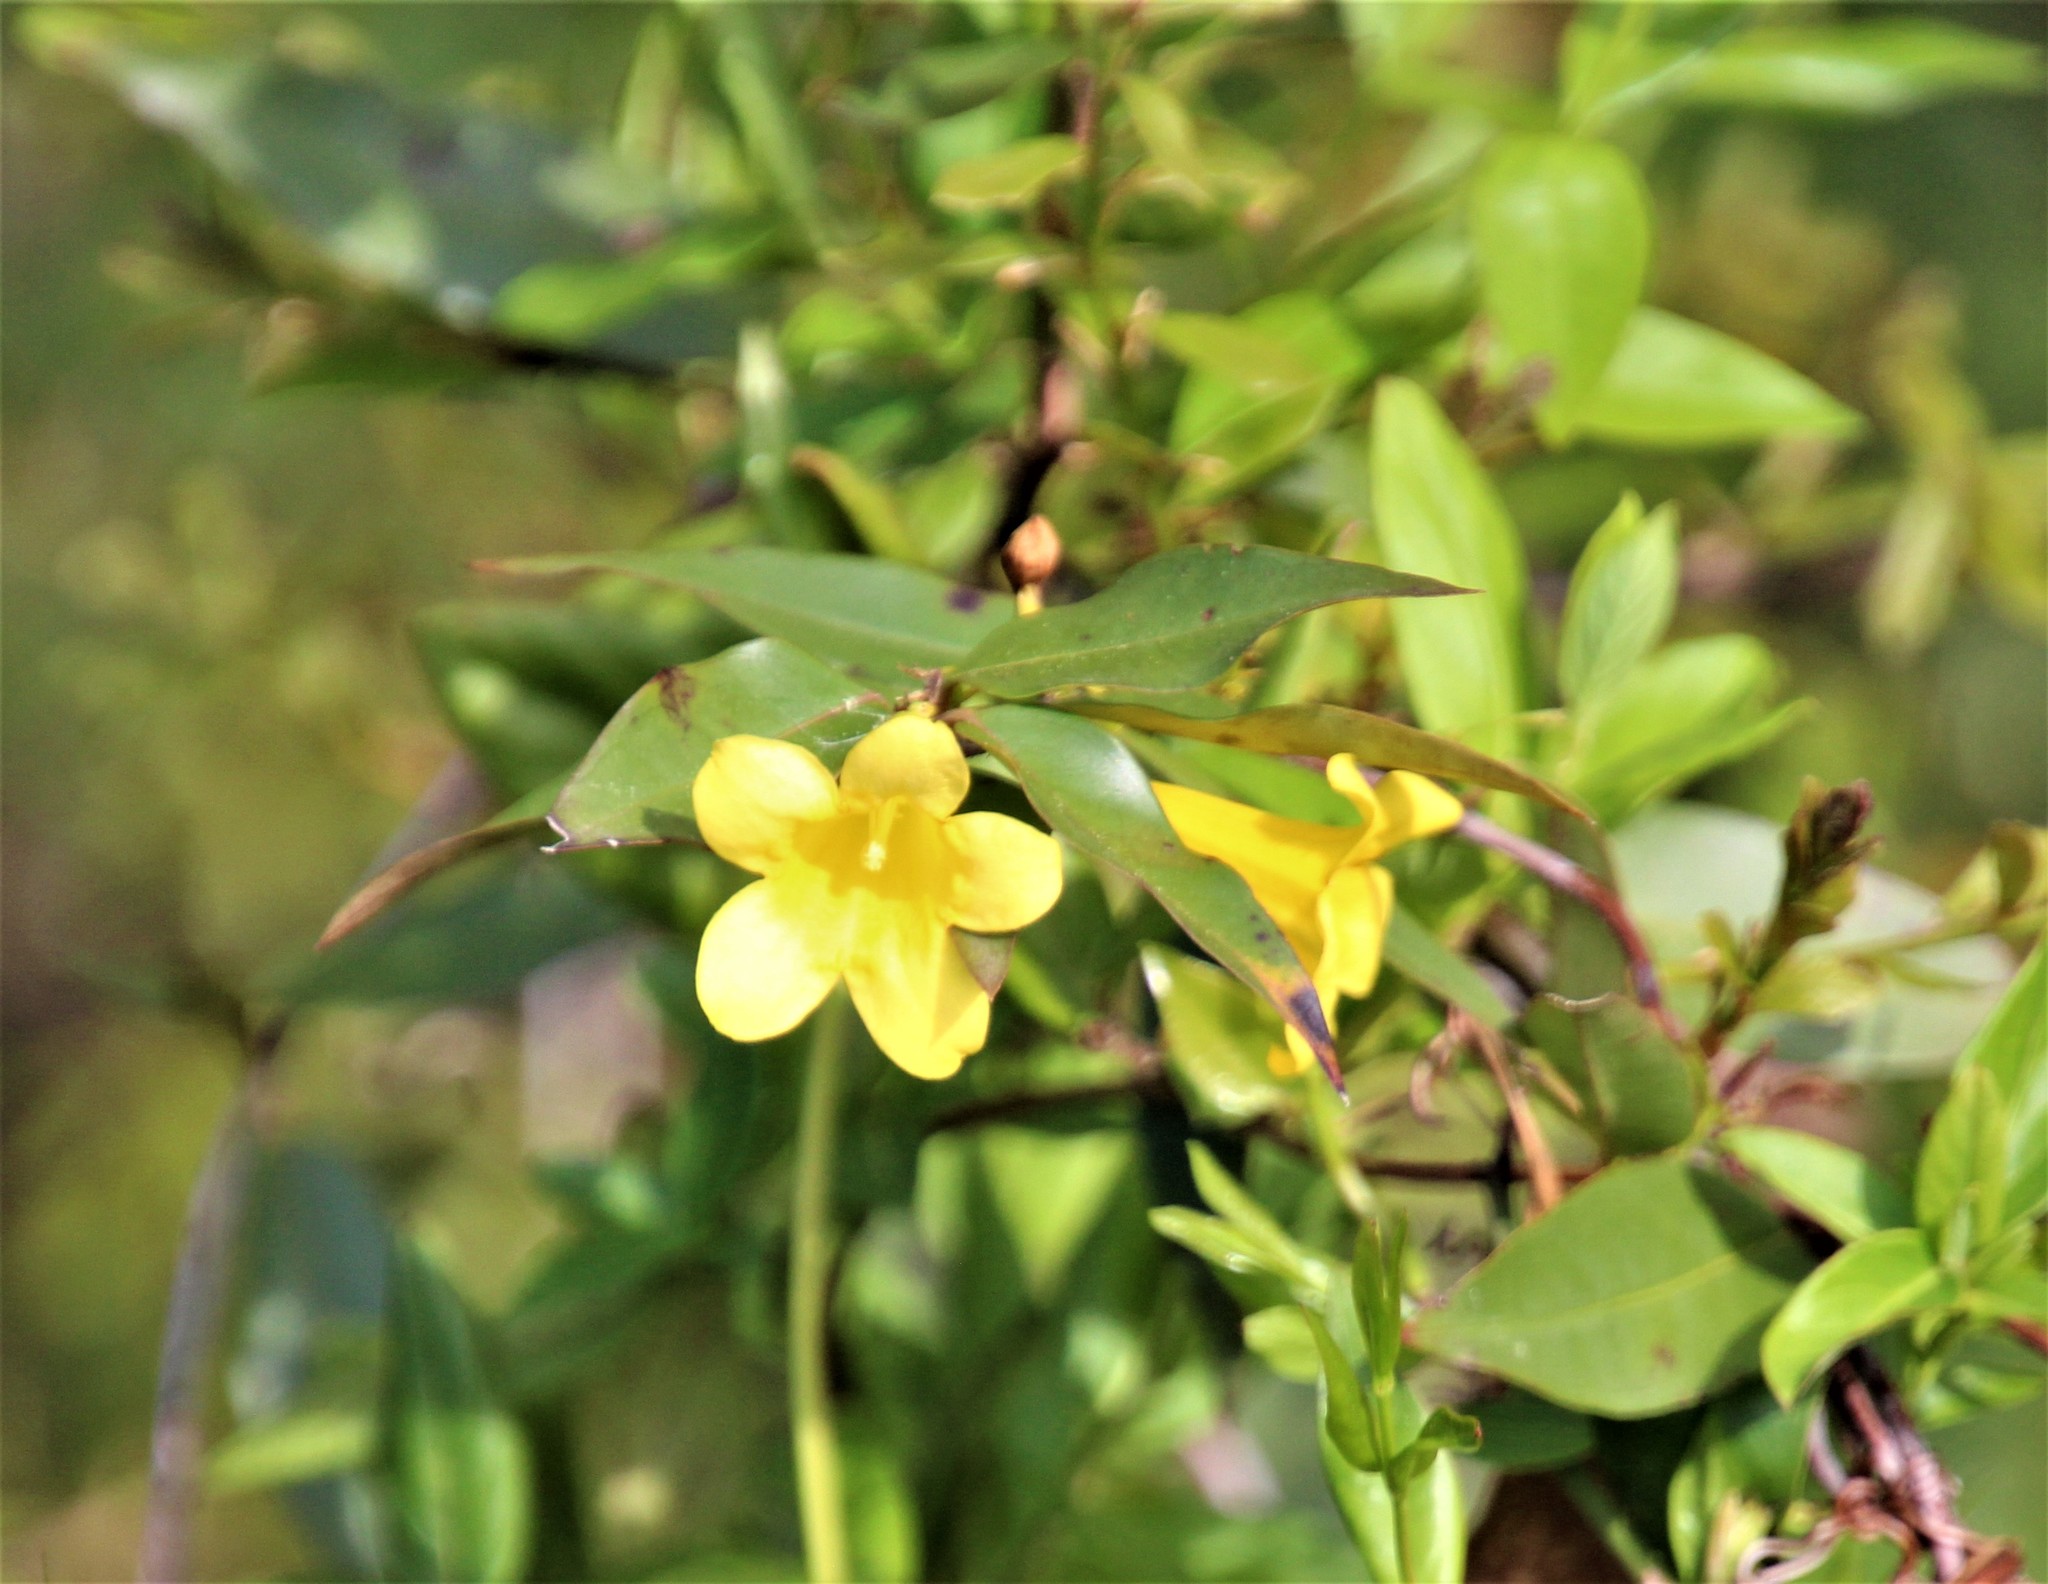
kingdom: Plantae
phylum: Tracheophyta
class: Magnoliopsida
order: Gentianales
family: Gelsemiaceae
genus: Gelsemium
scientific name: Gelsemium sempervirens
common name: Carolina-jasmine
